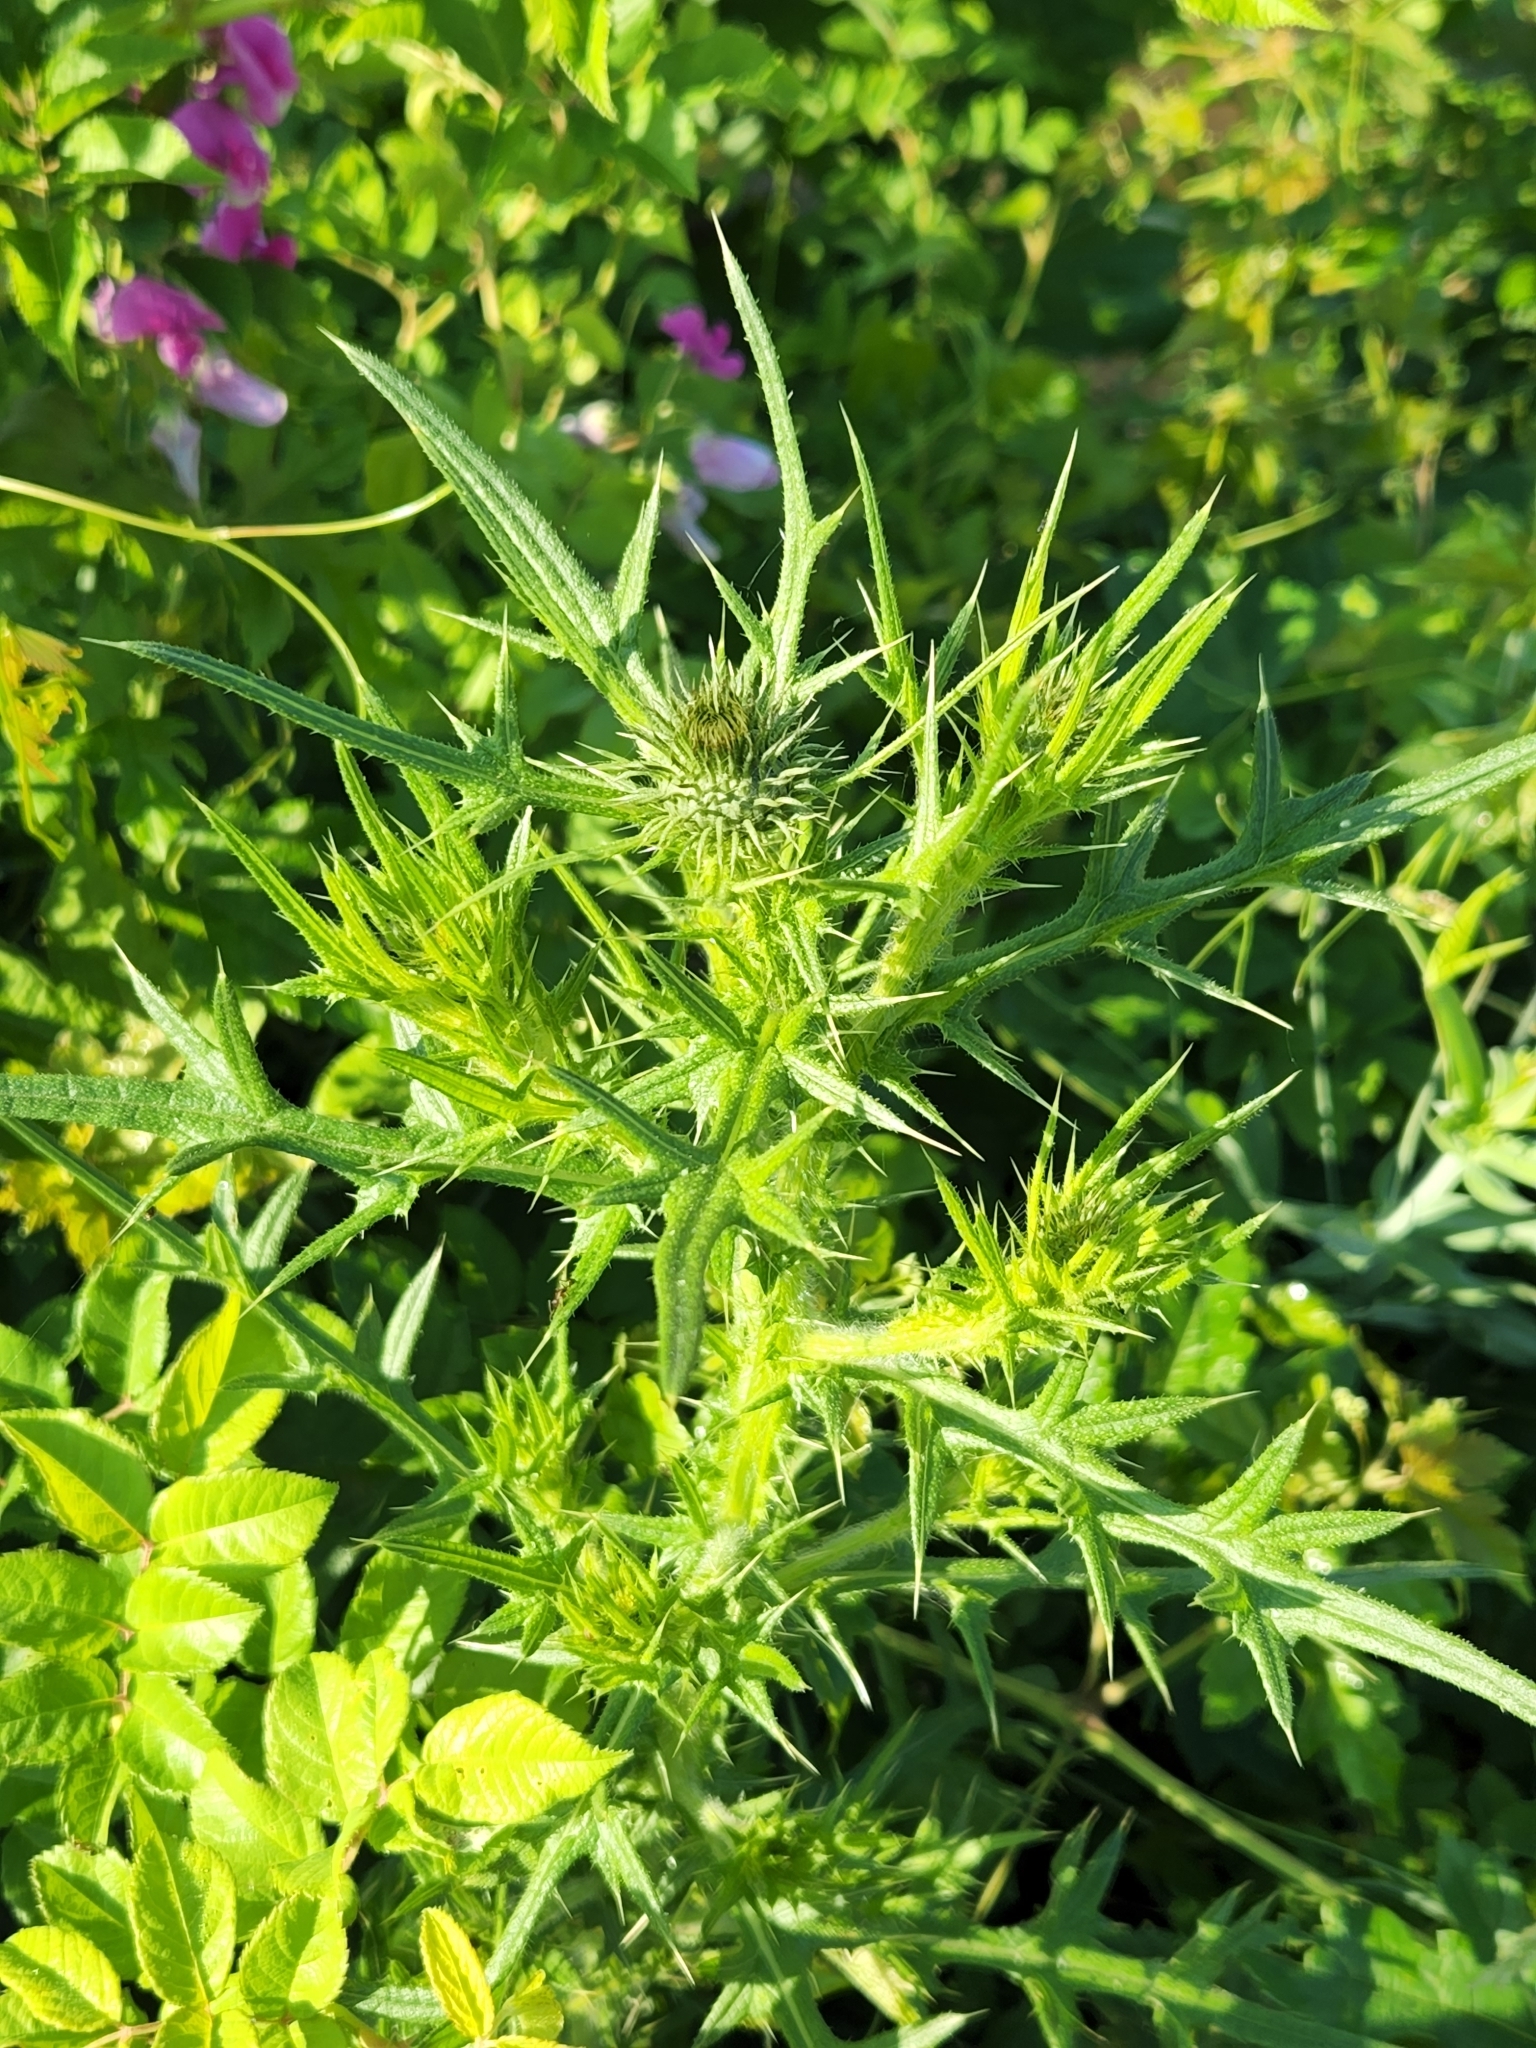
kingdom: Plantae
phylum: Tracheophyta
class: Magnoliopsida
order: Asterales
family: Asteraceae
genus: Cirsium
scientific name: Cirsium vulgare
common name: Bull thistle
